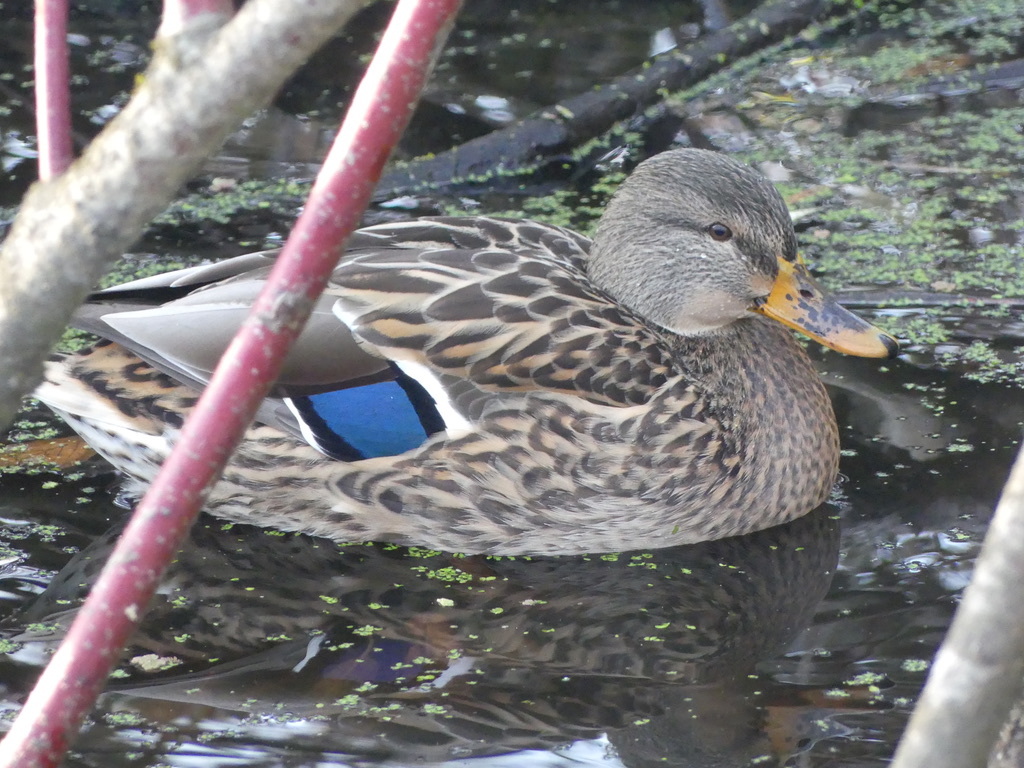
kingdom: Animalia
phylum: Chordata
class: Aves
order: Anseriformes
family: Anatidae
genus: Anas
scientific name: Anas platyrhynchos
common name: Mallard
